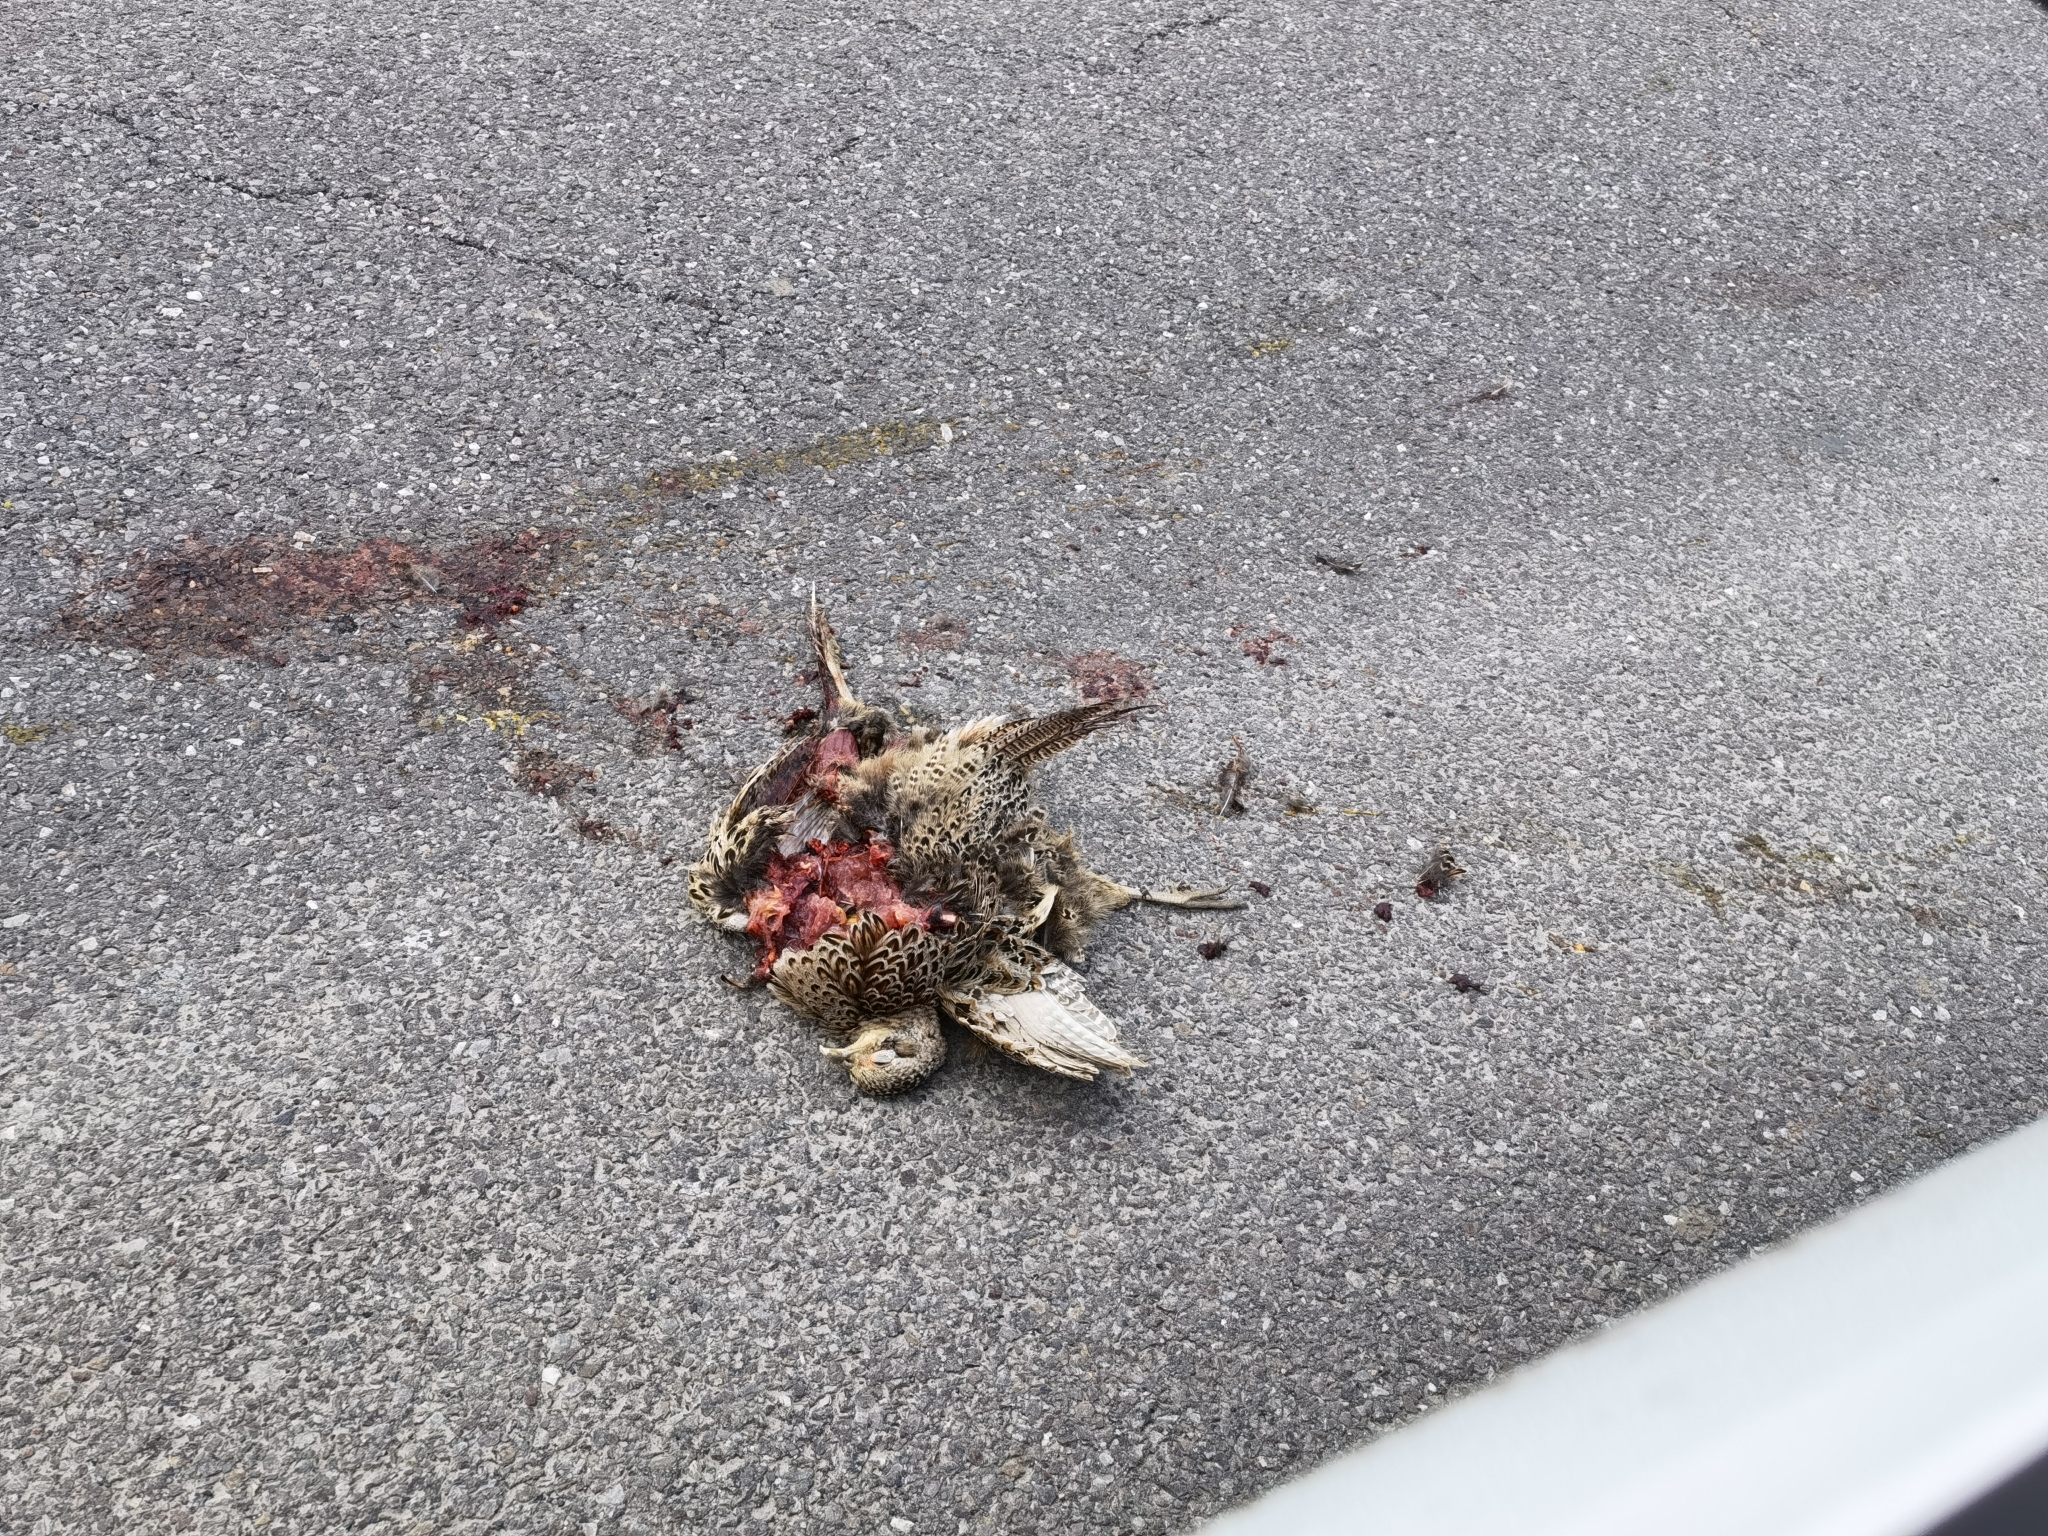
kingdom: Animalia
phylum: Chordata
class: Aves
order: Galliformes
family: Phasianidae
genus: Phasianus
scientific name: Phasianus colchicus
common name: Common pheasant
